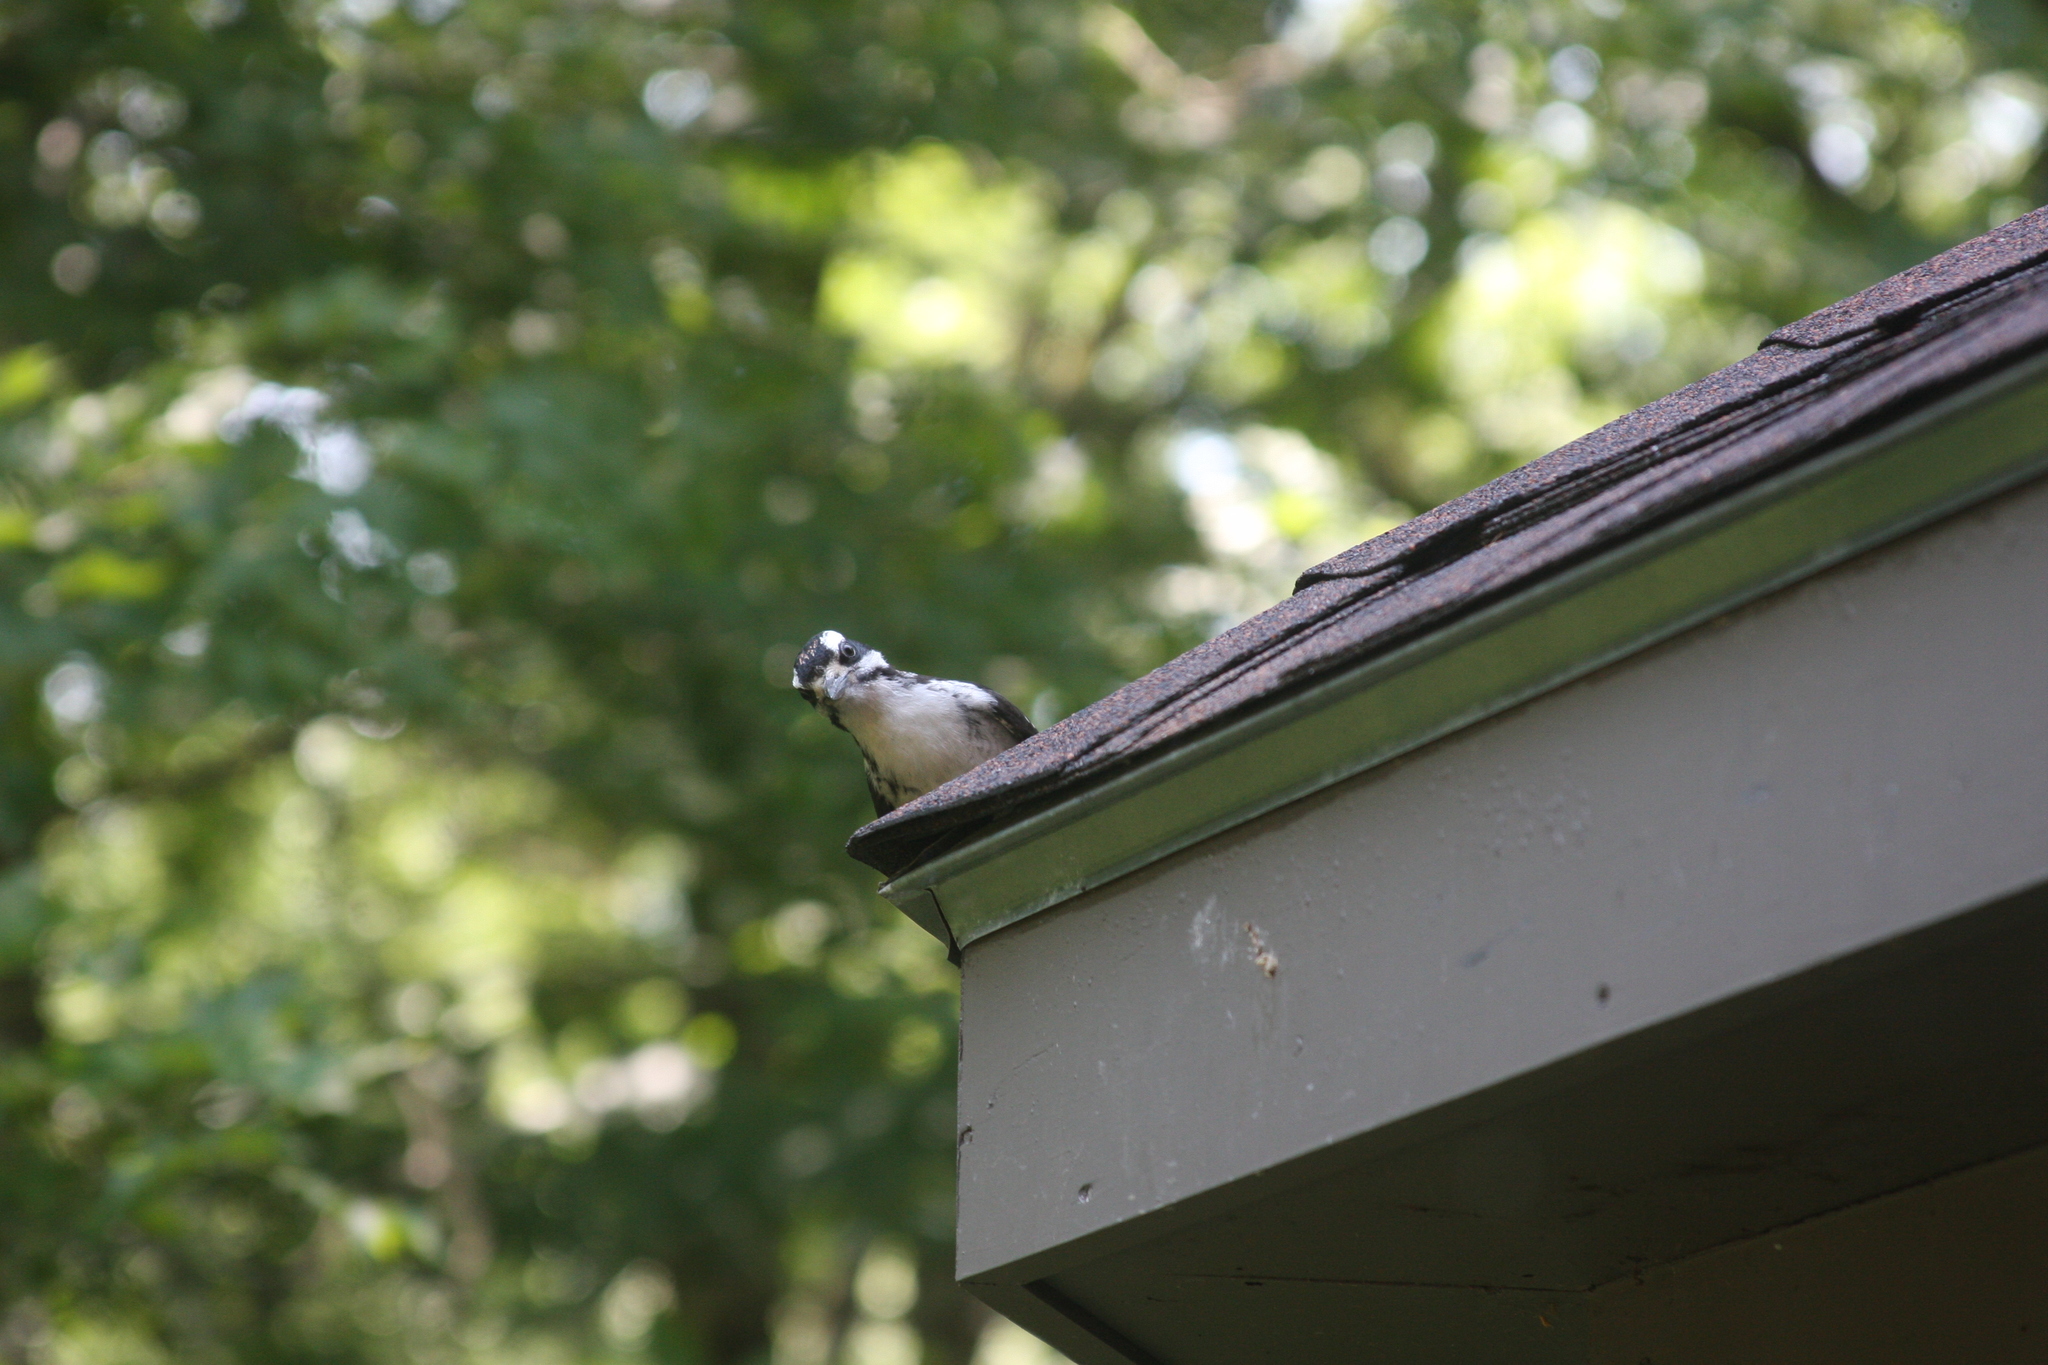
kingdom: Animalia
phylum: Chordata
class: Aves
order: Piciformes
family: Picidae
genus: Leuconotopicus
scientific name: Leuconotopicus villosus
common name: Hairy woodpecker
